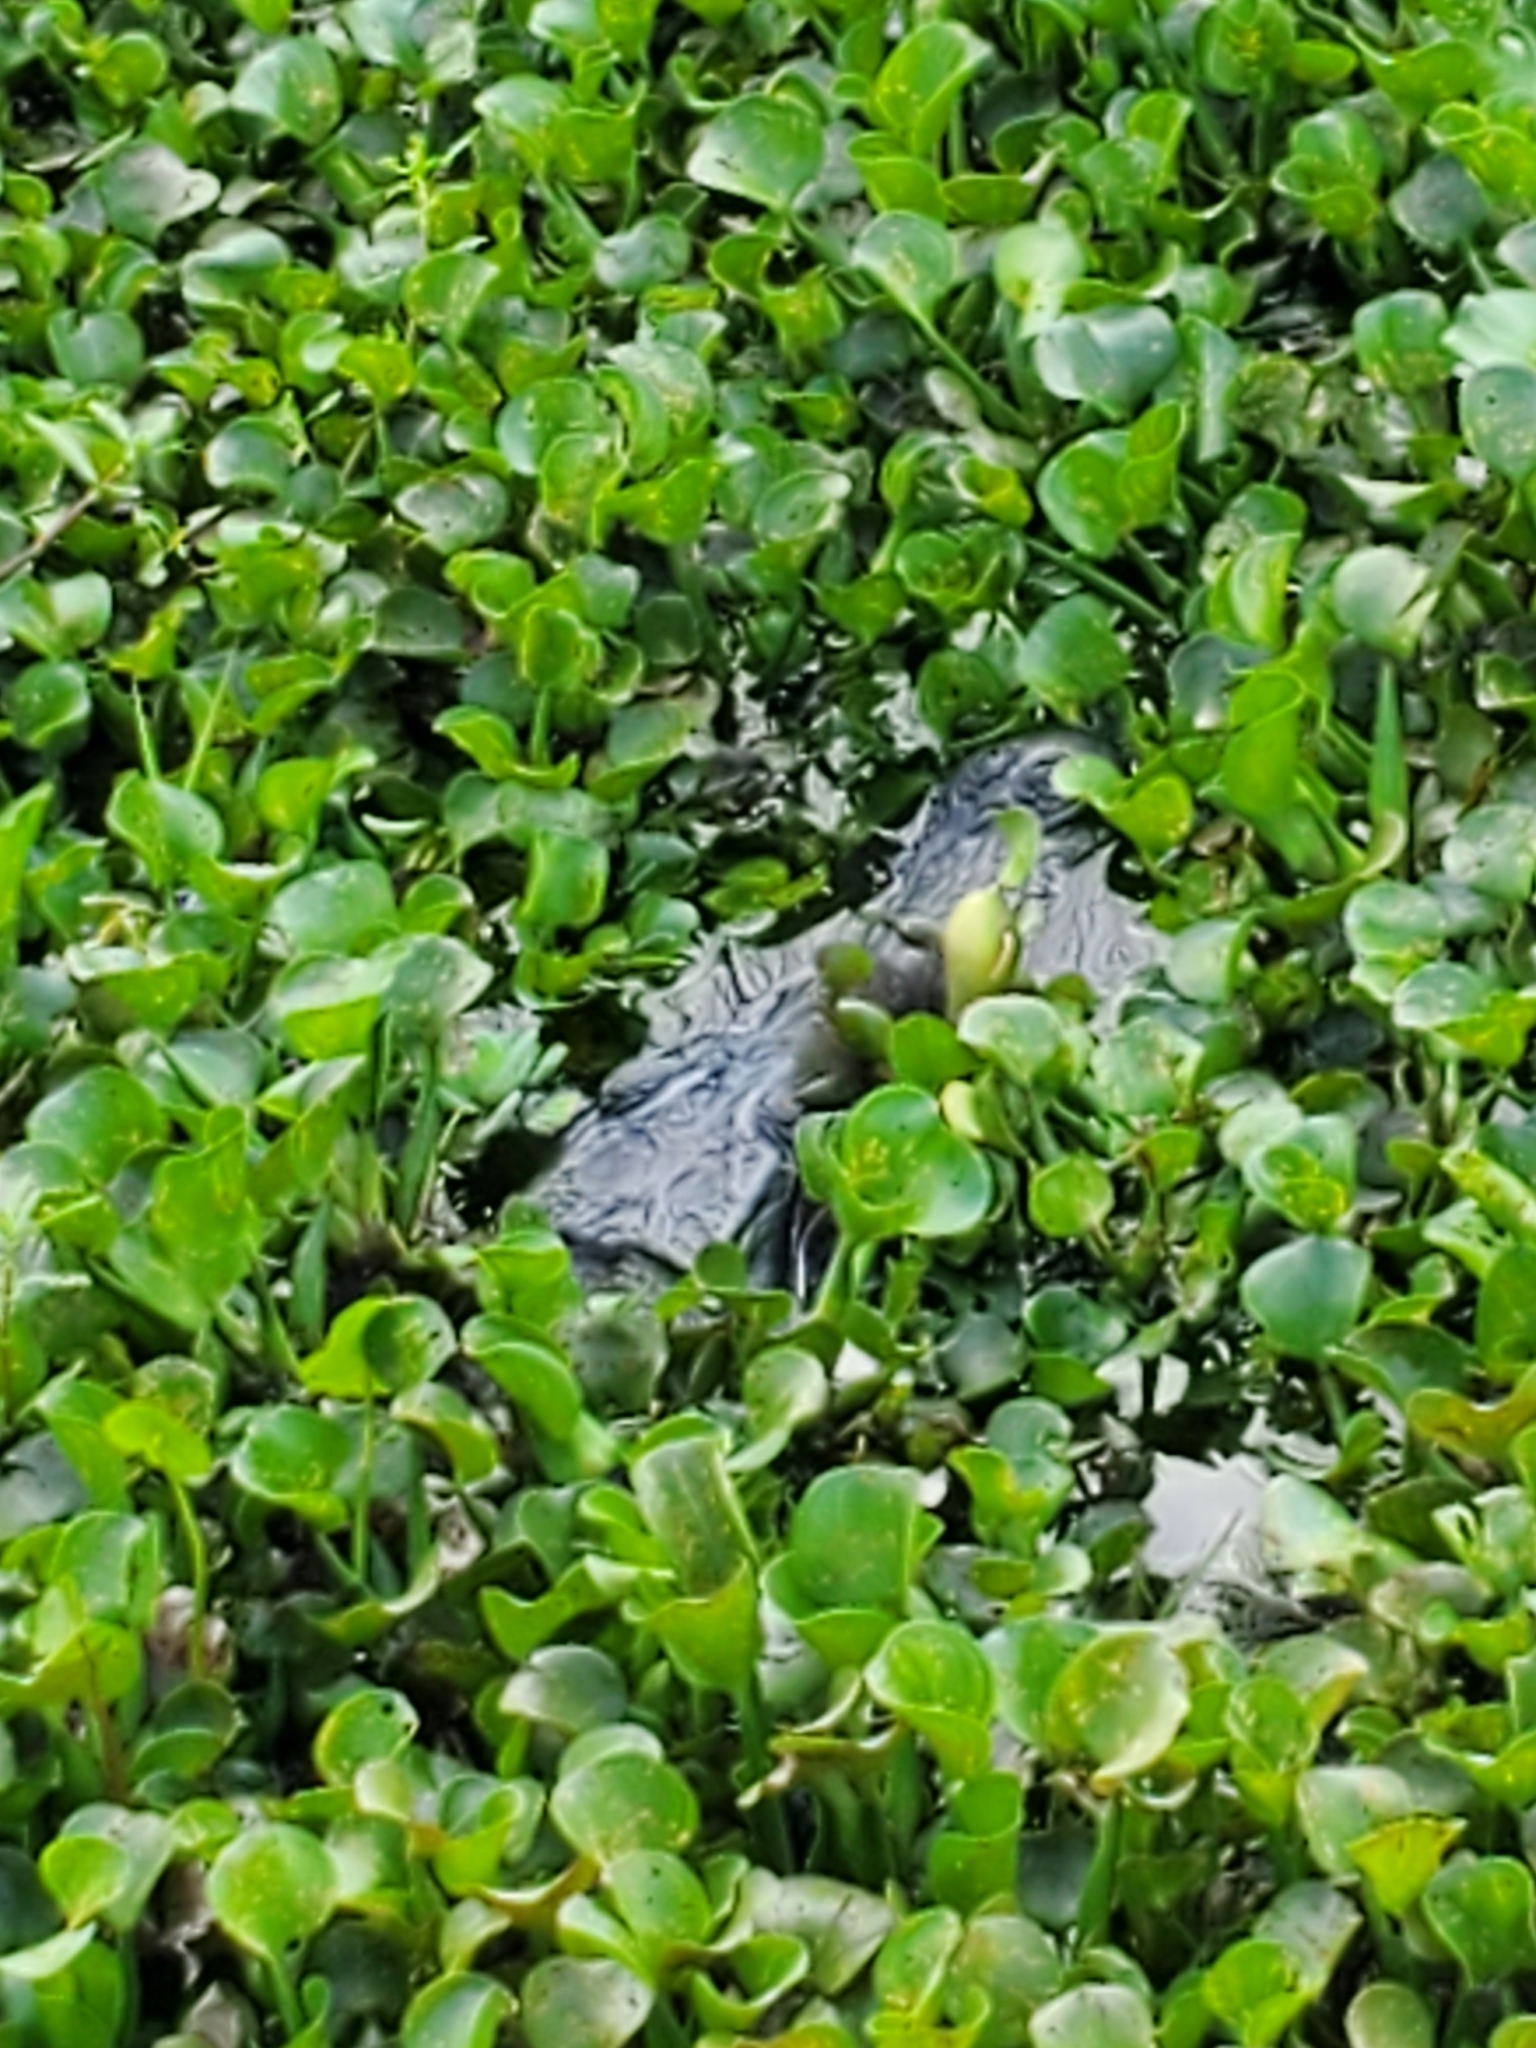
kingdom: Animalia
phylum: Chordata
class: Crocodylia
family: Alligatoridae
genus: Alligator
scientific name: Alligator mississippiensis
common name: American alligator
